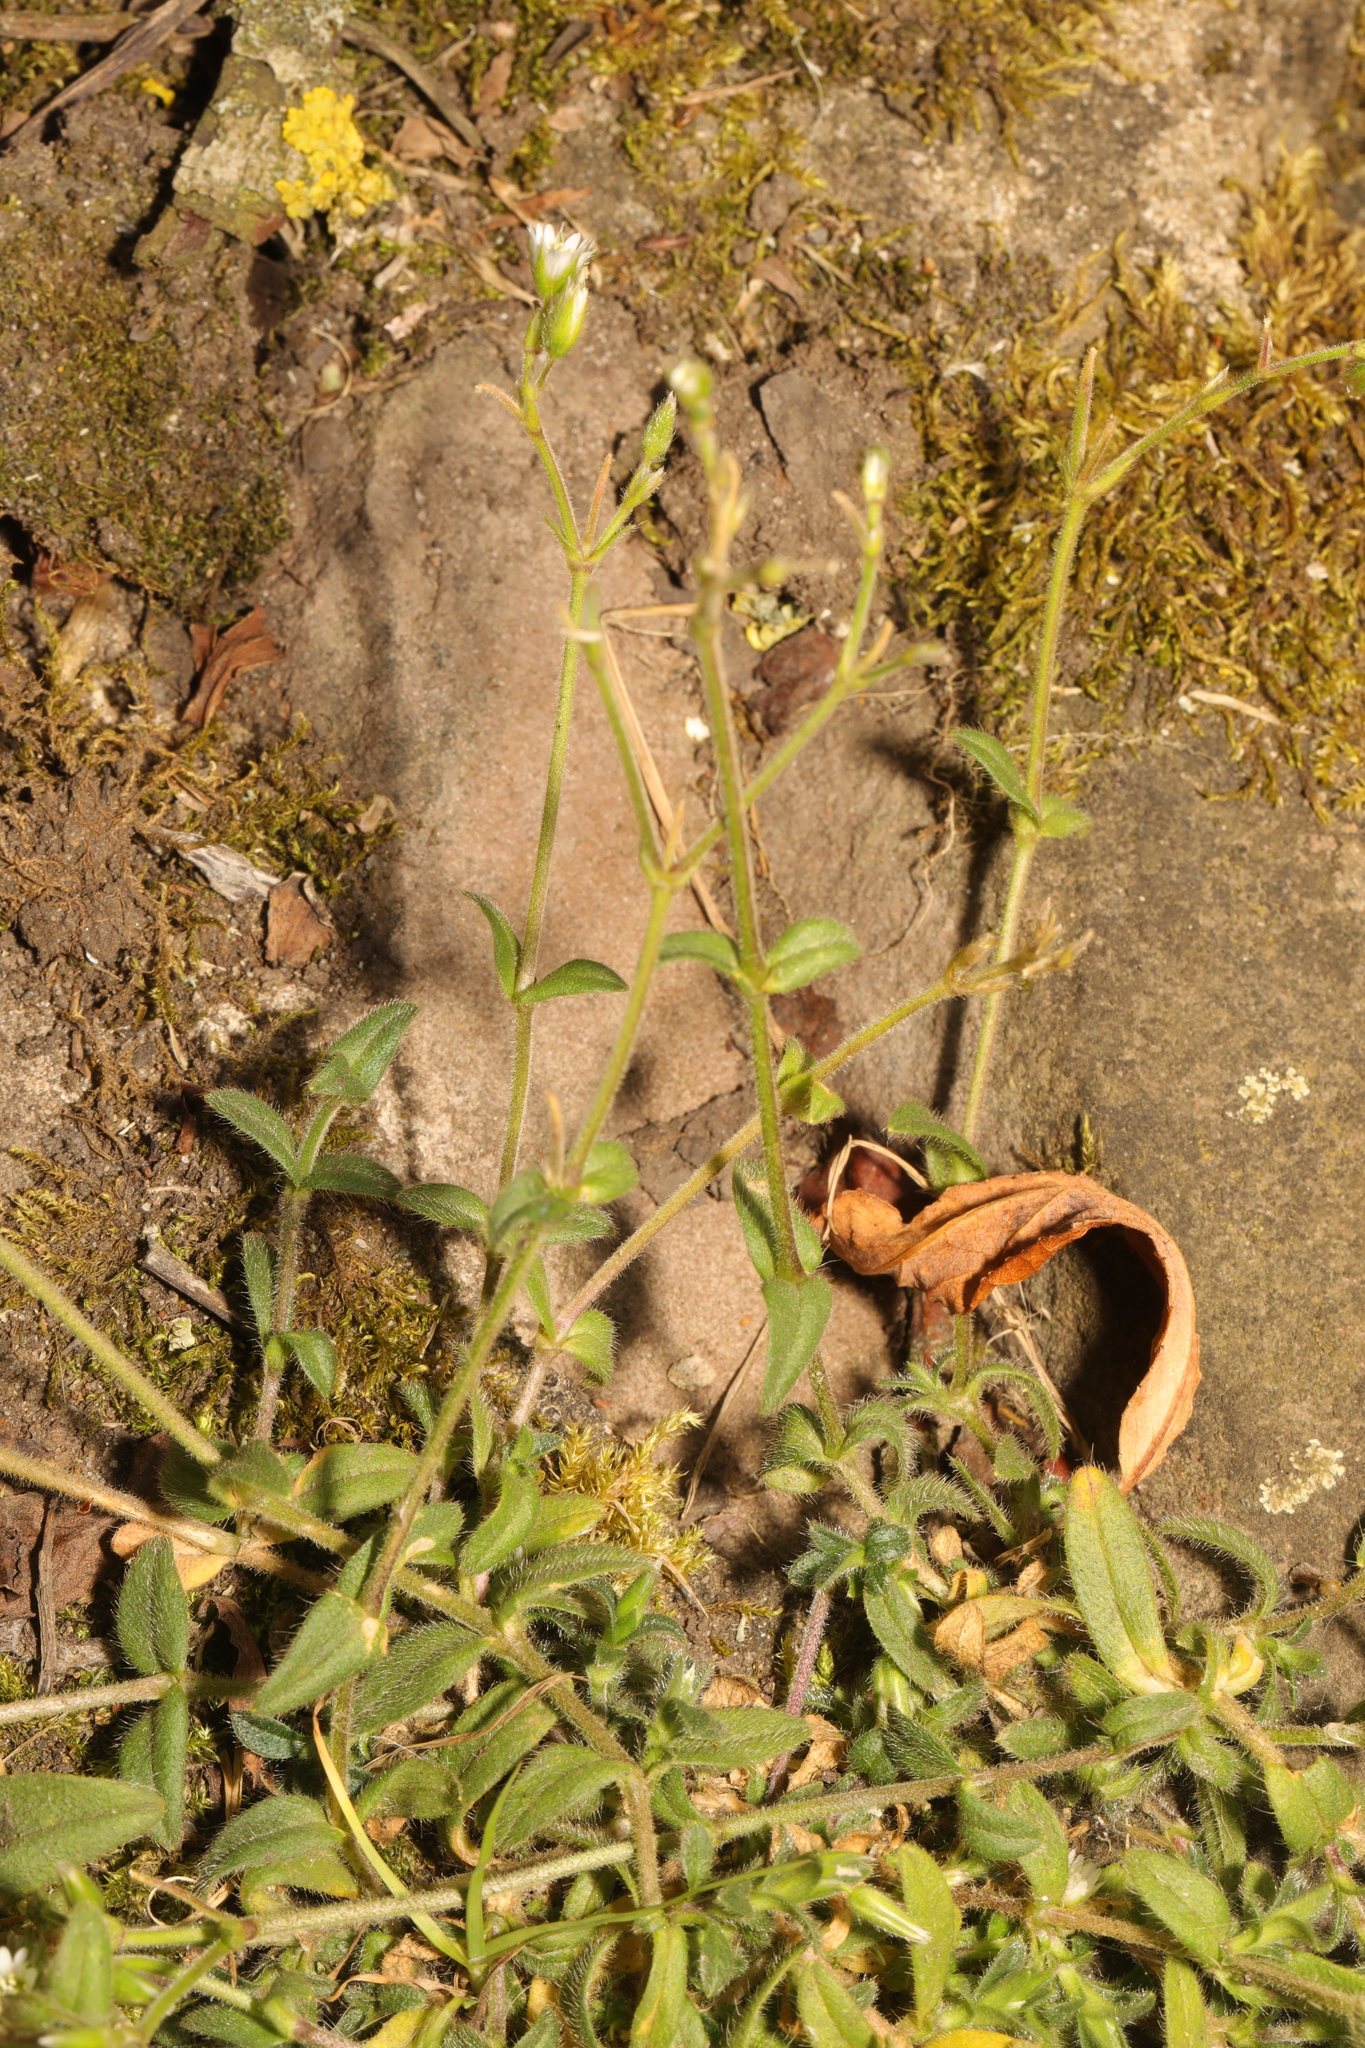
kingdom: Plantae
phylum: Tracheophyta
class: Magnoliopsida
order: Caryophyllales
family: Caryophyllaceae
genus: Cerastium
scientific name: Cerastium fontanum
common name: Common mouse-ear
